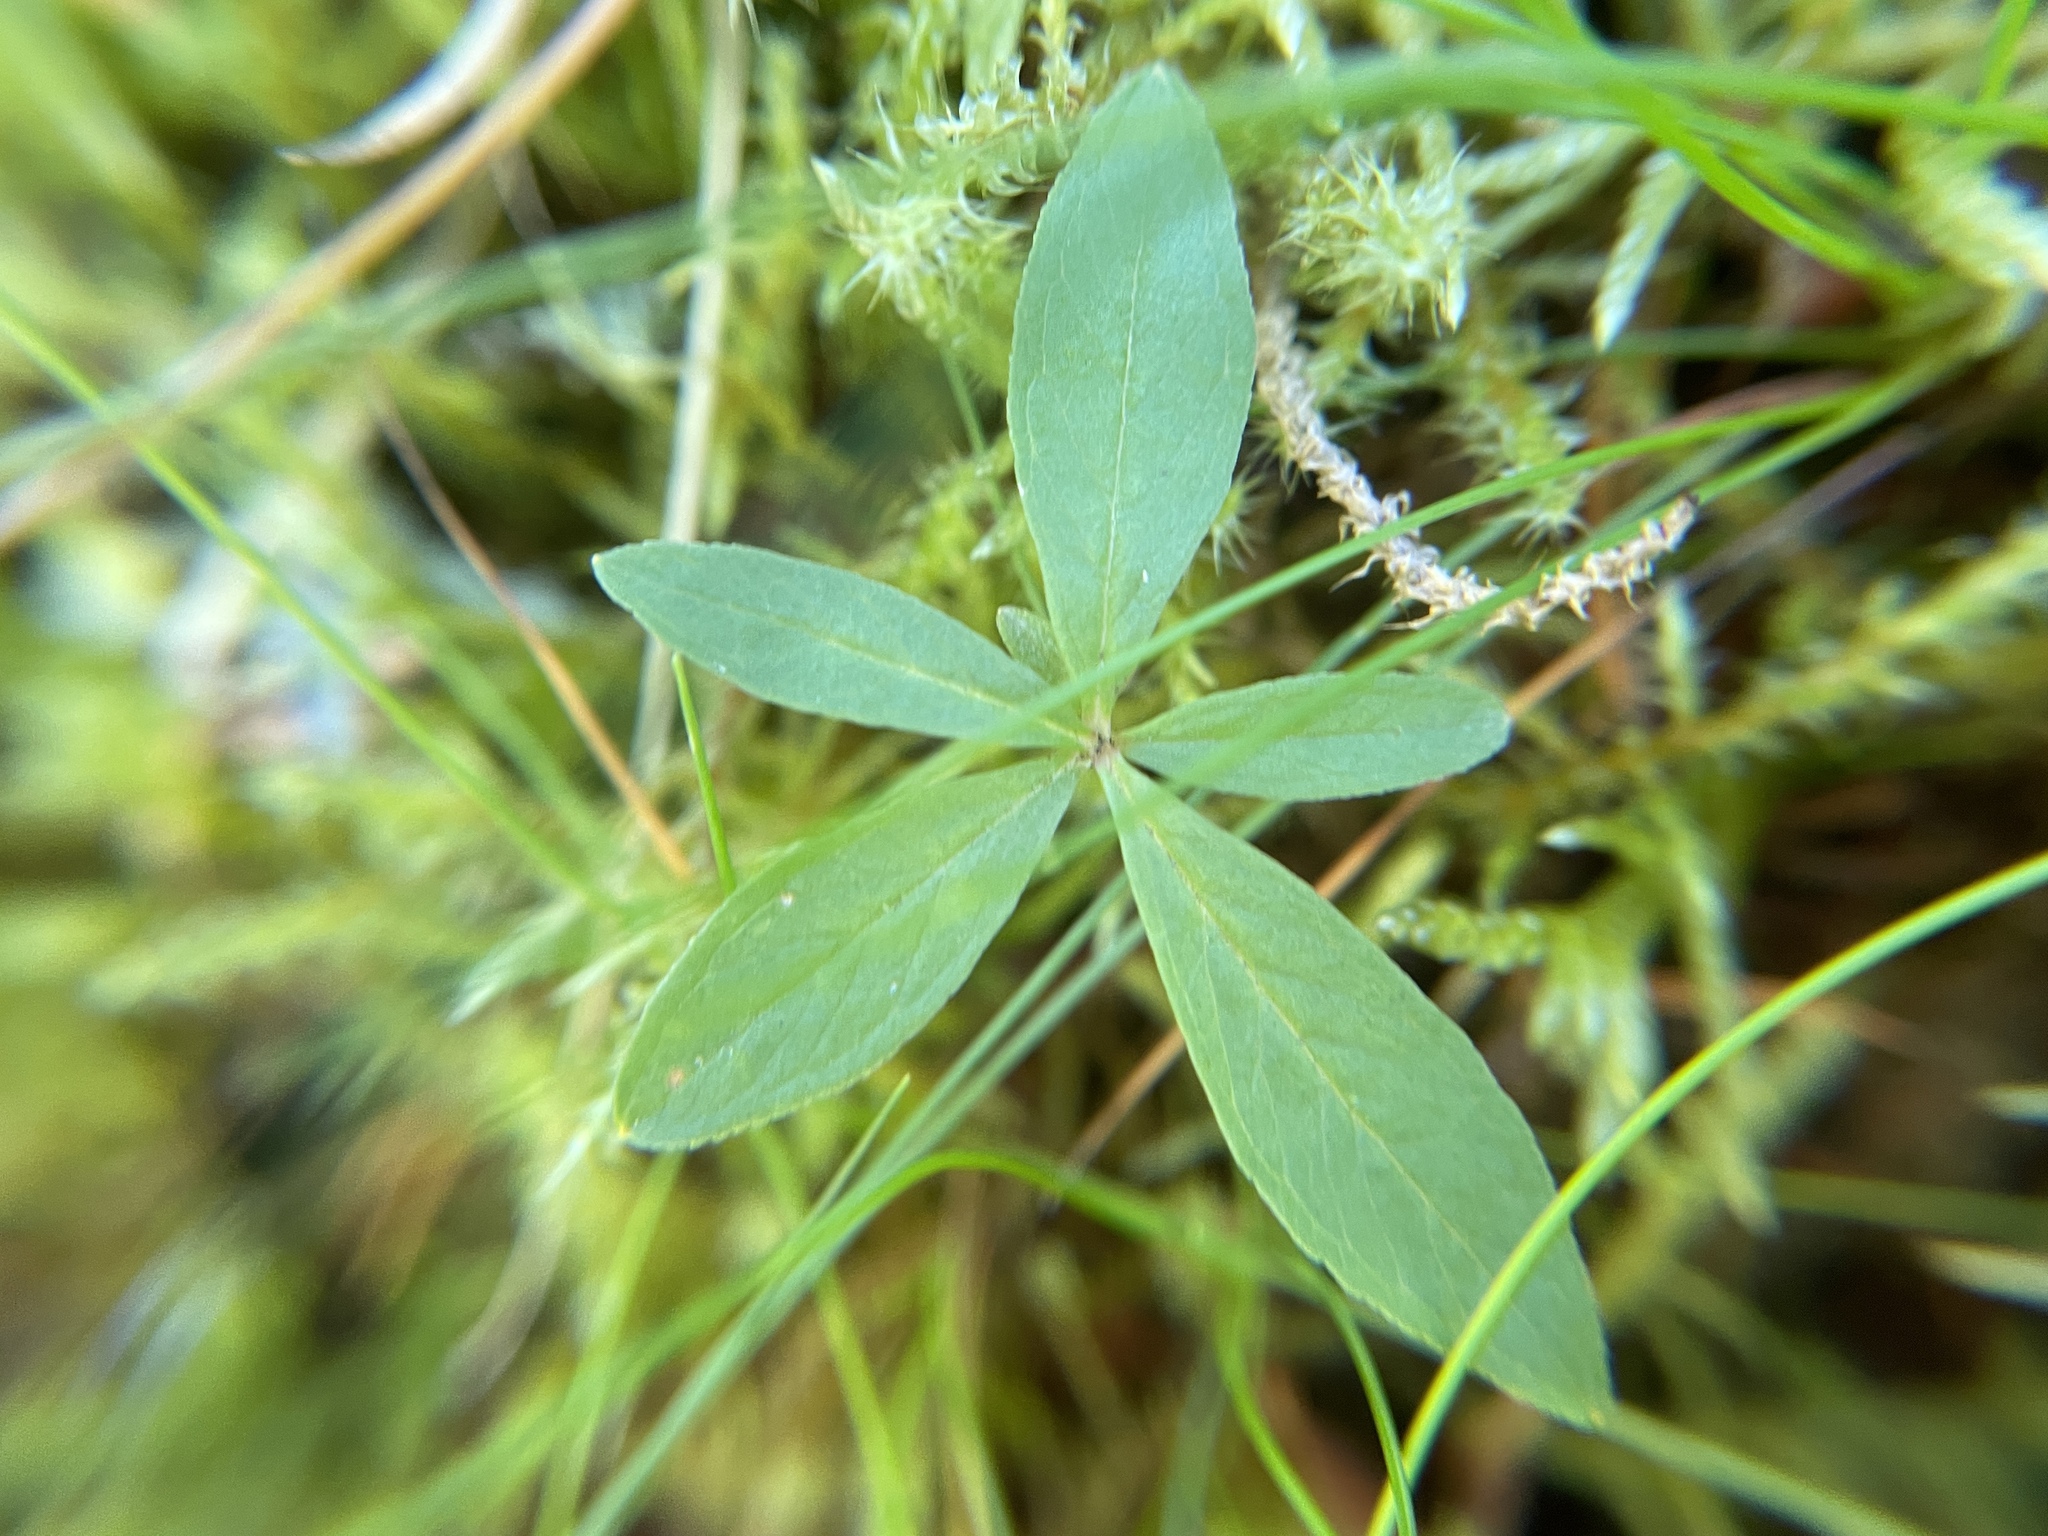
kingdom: Plantae
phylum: Tracheophyta
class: Magnoliopsida
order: Ericales
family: Primulaceae
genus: Lysimachia
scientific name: Lysimachia europaea
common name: Arctic starflower
